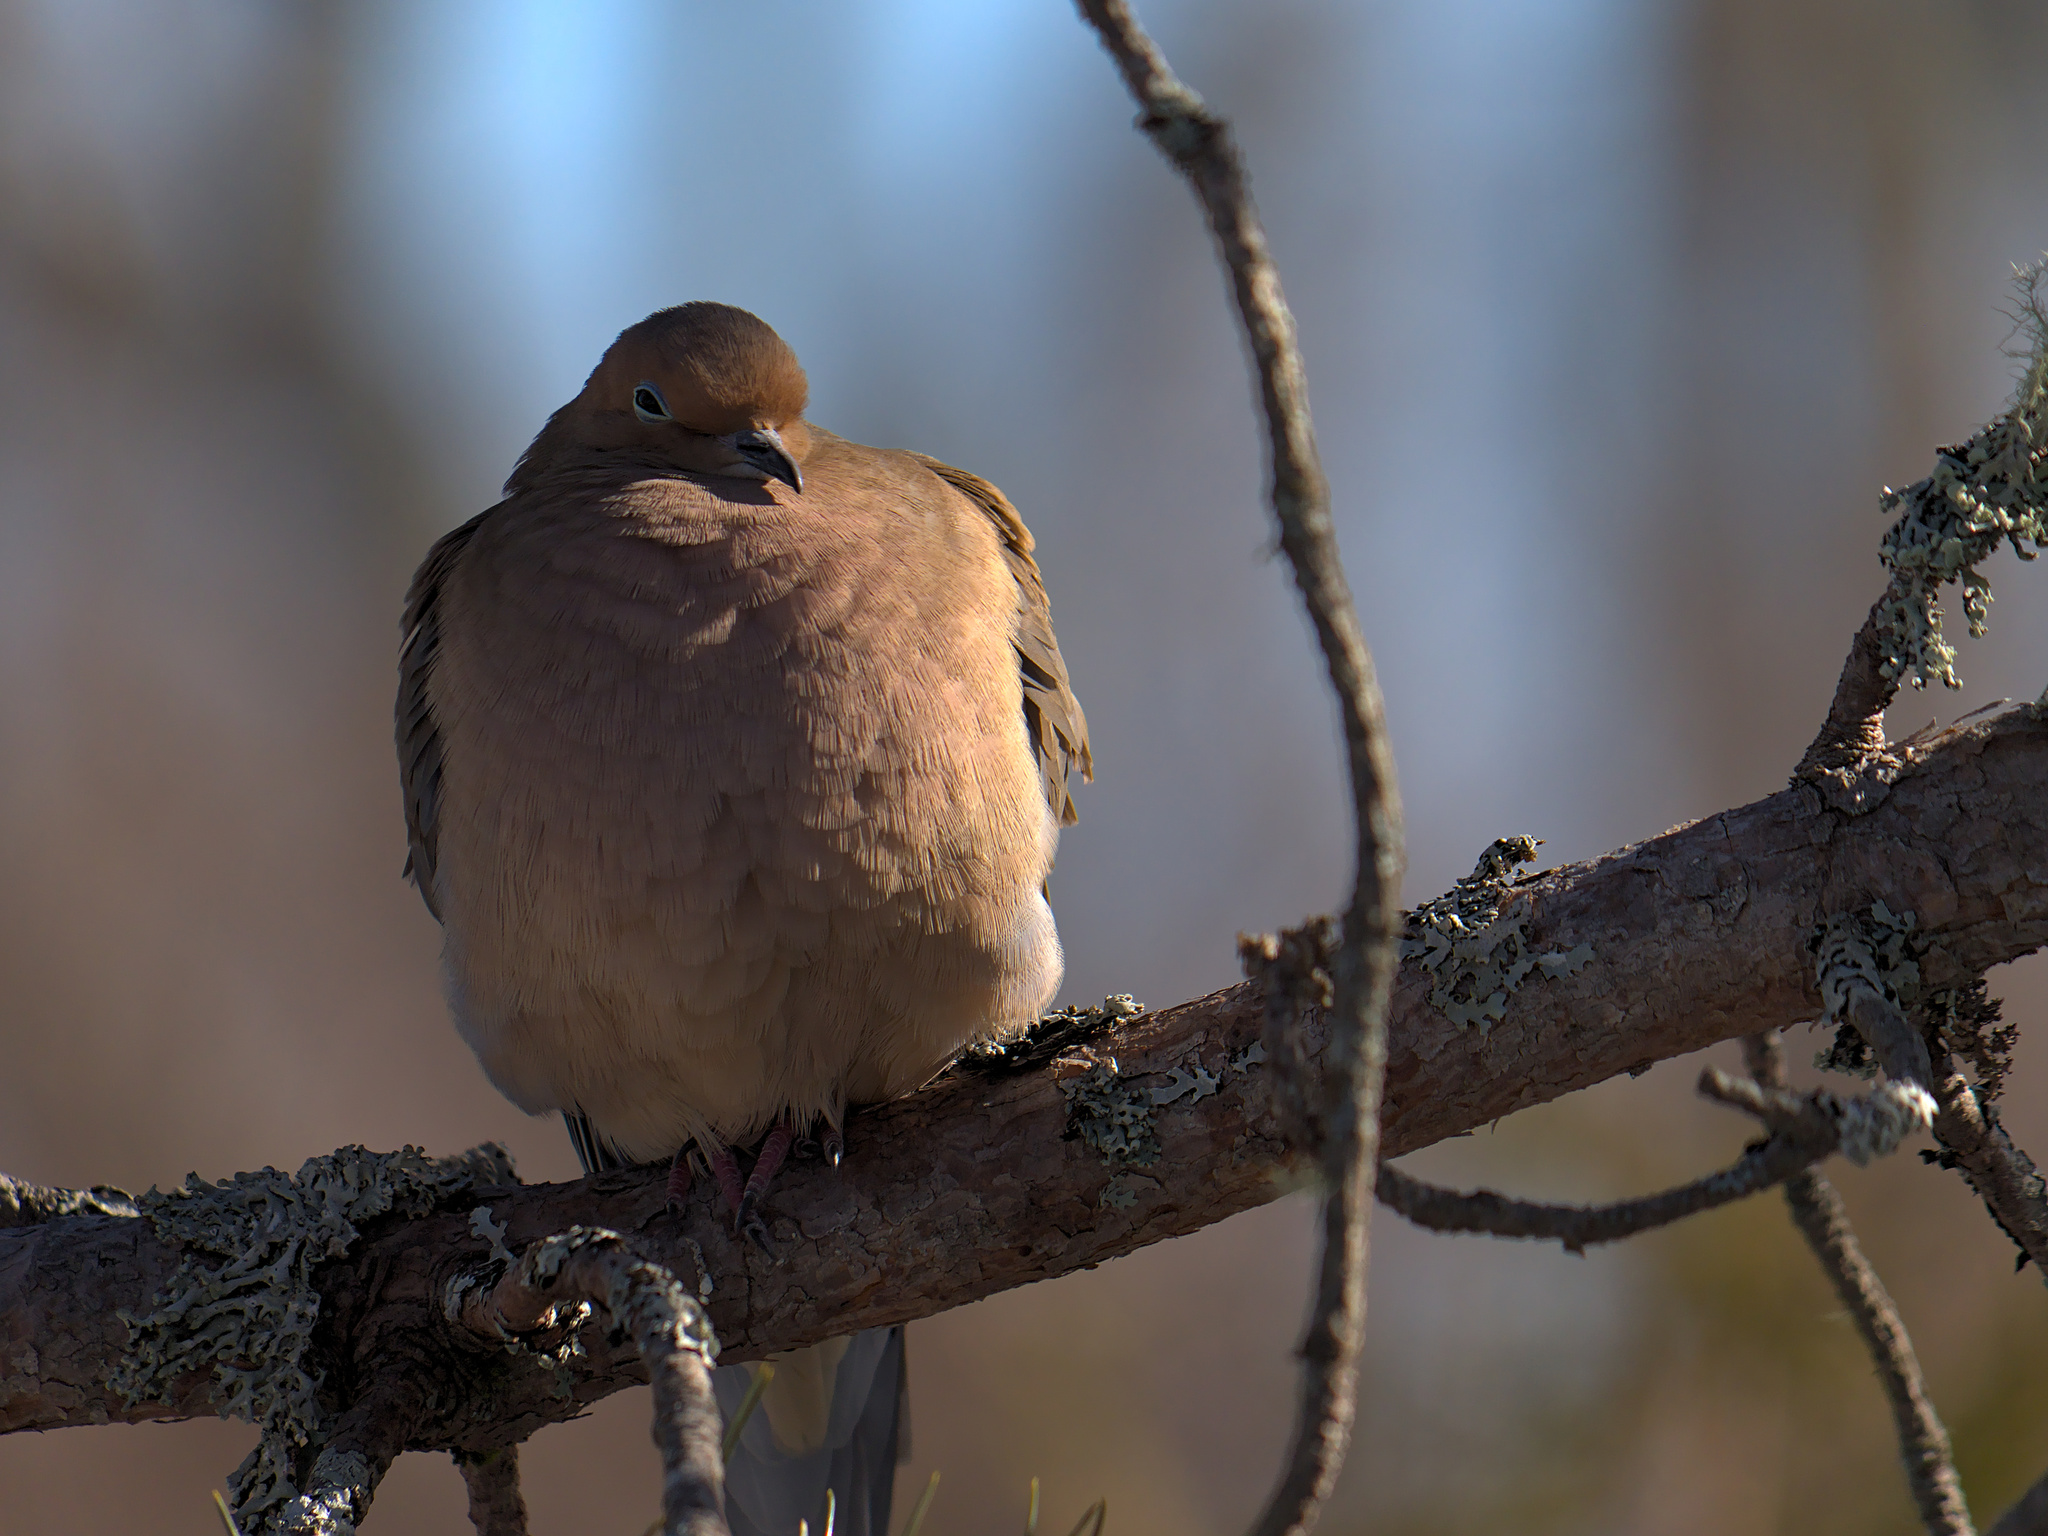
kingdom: Animalia
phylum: Chordata
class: Aves
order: Columbiformes
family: Columbidae
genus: Zenaida
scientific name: Zenaida macroura
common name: Mourning dove
